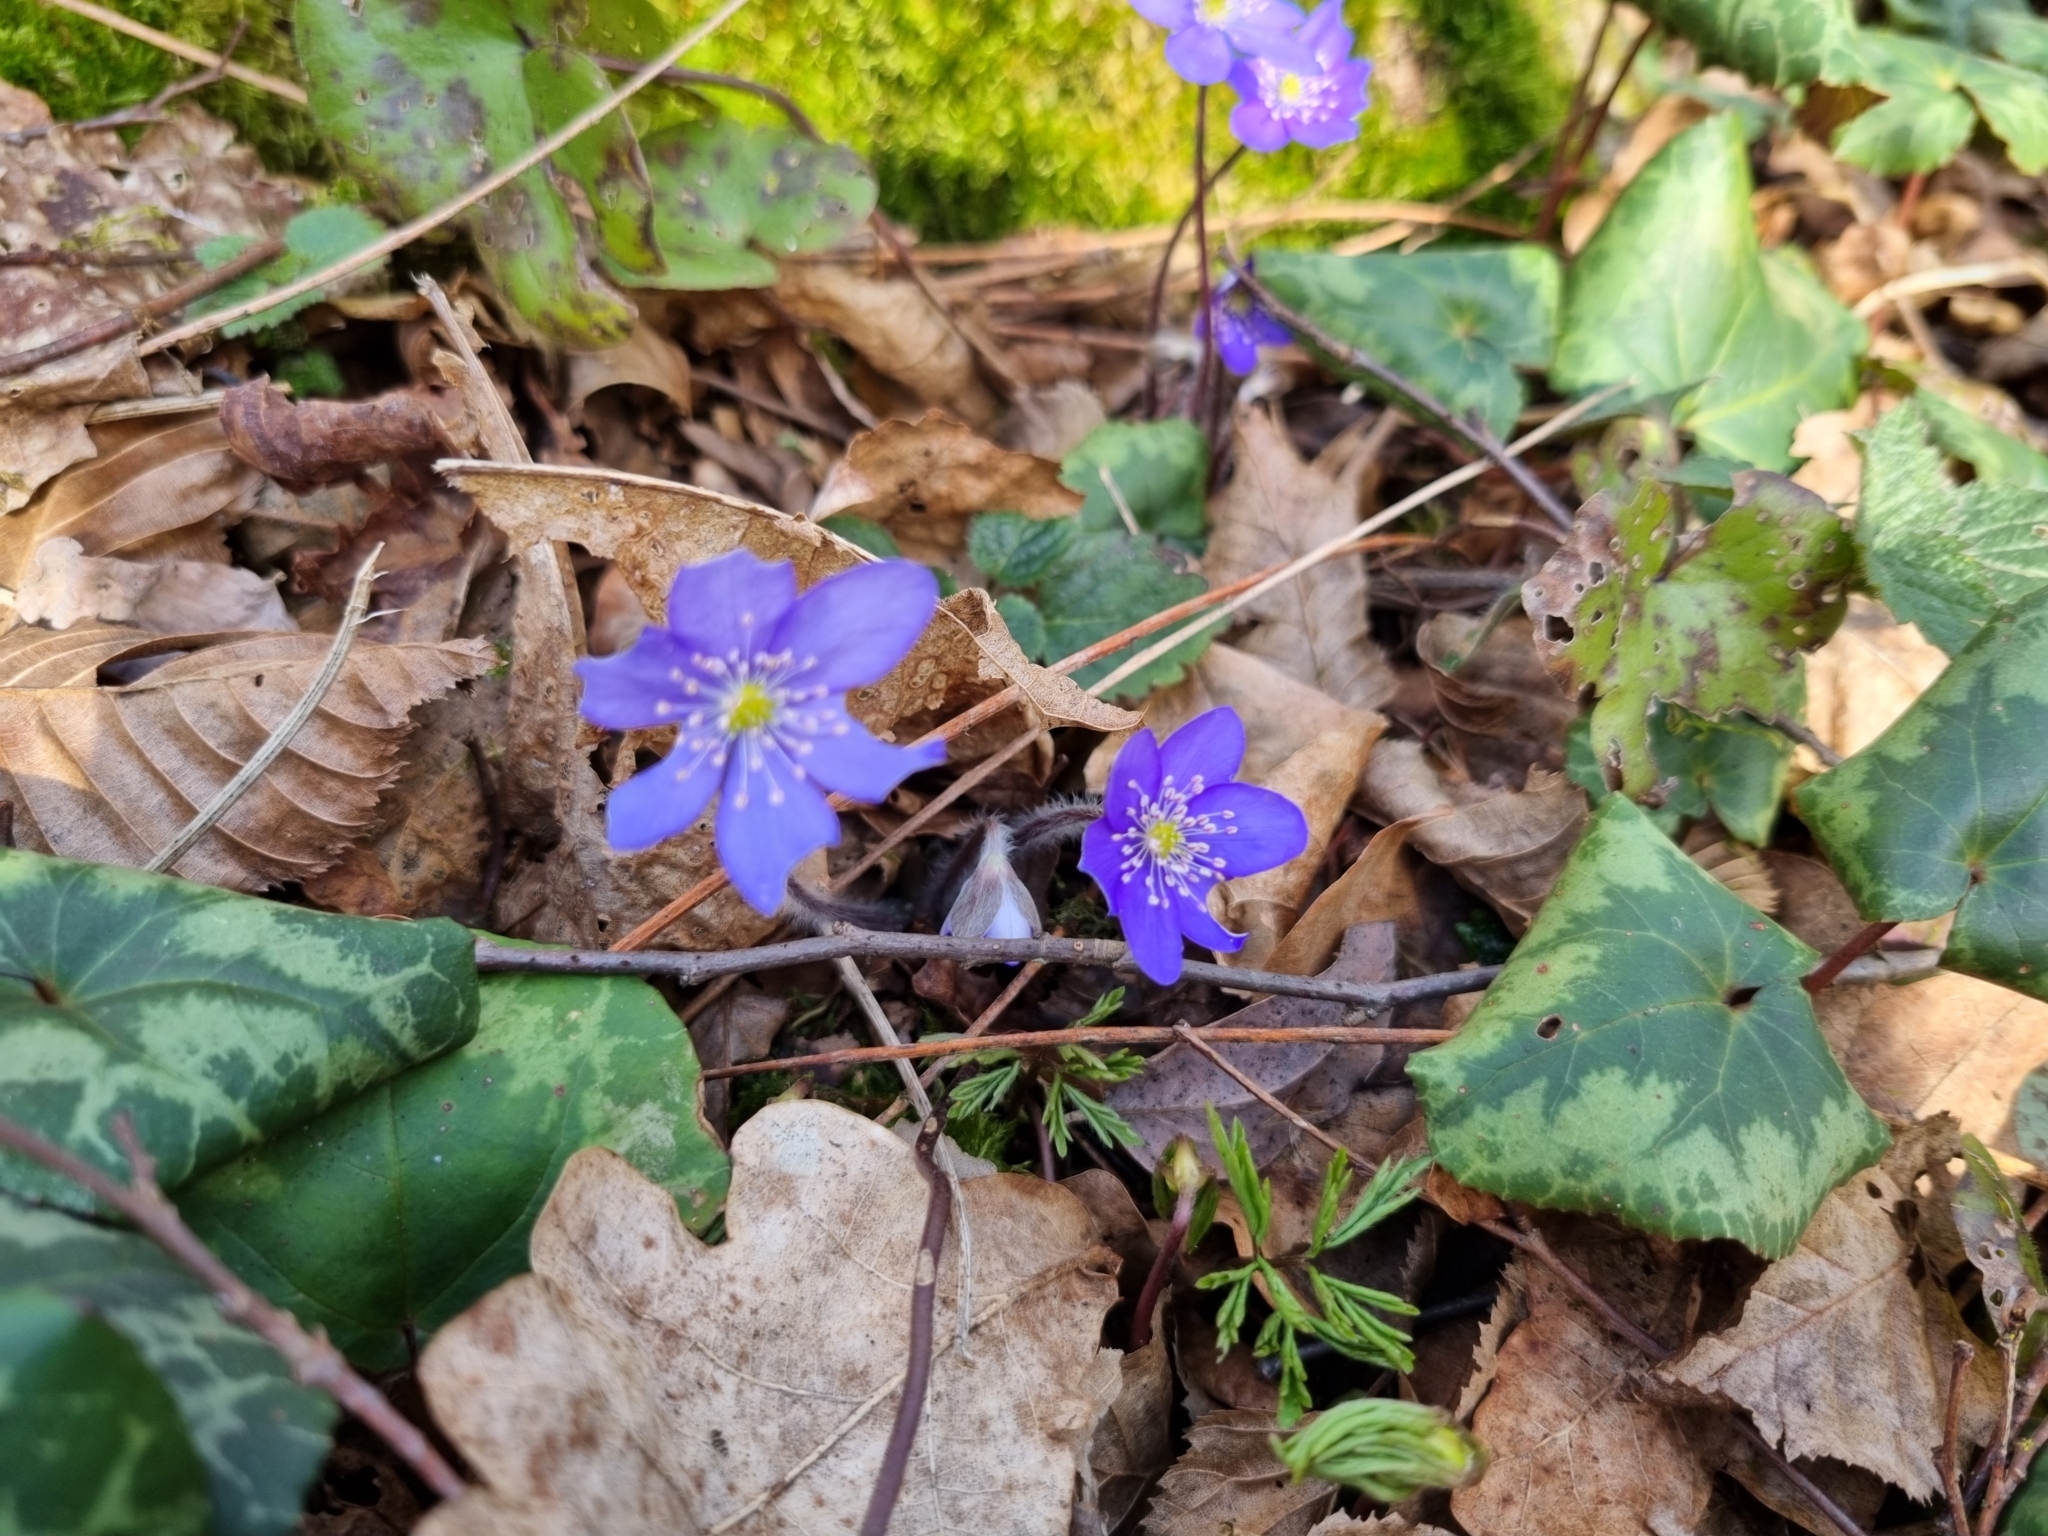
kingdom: Plantae
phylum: Tracheophyta
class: Magnoliopsida
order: Ranunculales
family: Ranunculaceae
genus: Hepatica
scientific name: Hepatica nobilis
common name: Liverleaf
